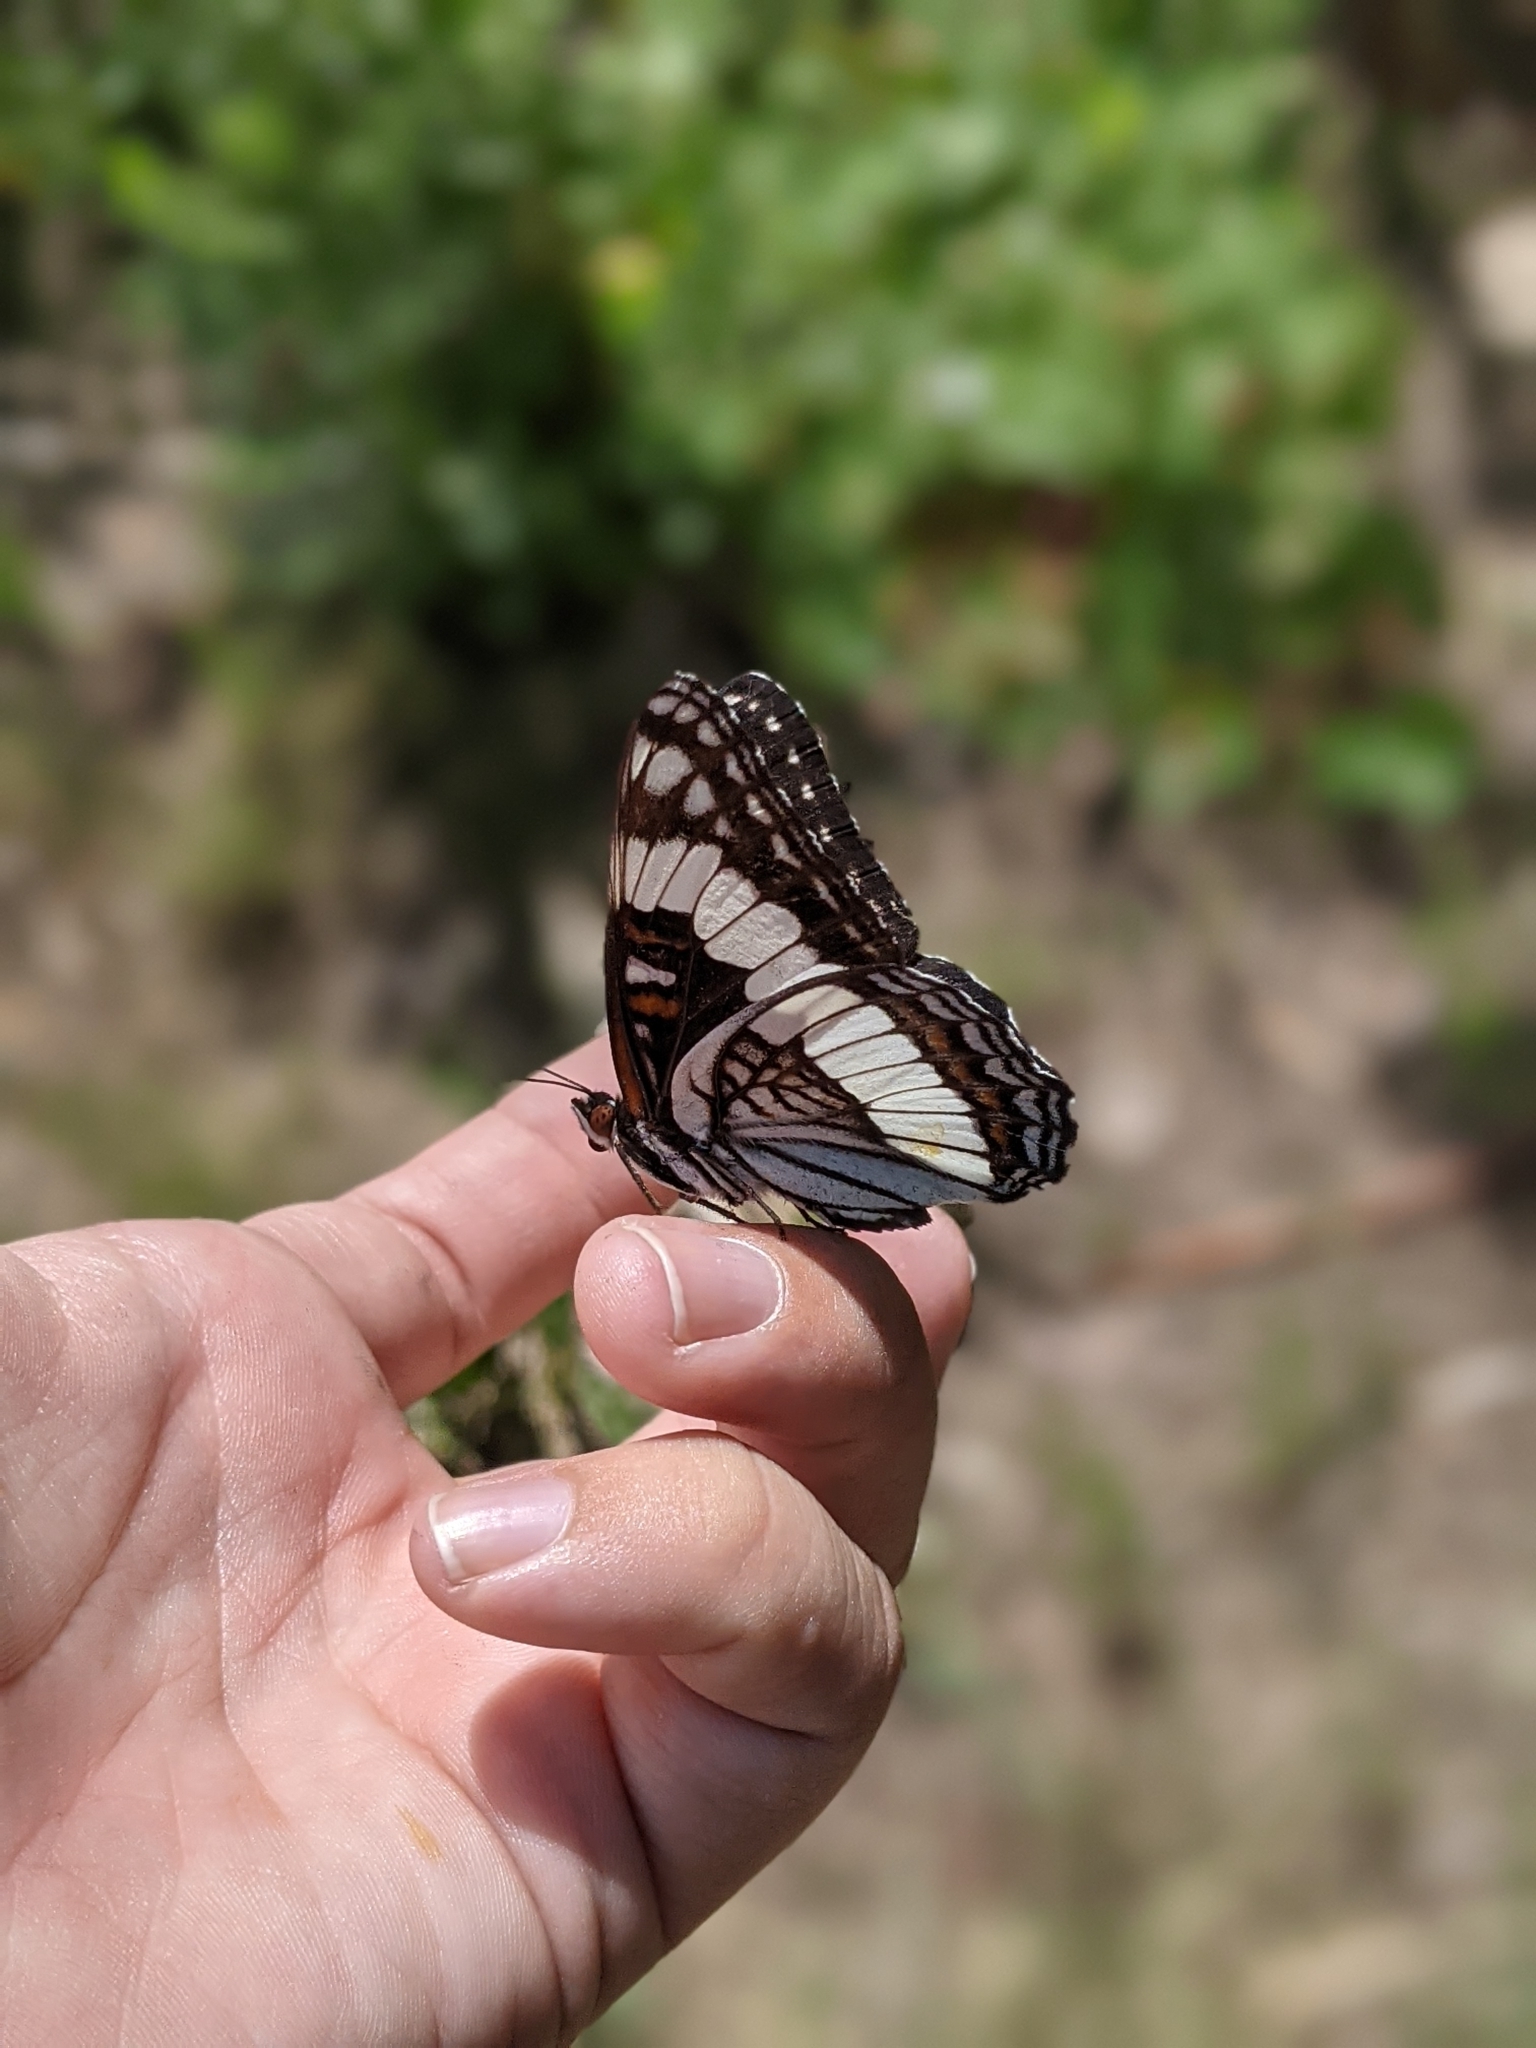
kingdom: Animalia
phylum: Arthropoda
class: Insecta
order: Lepidoptera
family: Nymphalidae
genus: Limenitis
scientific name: Limenitis weidemeyerii
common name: Weidemeyer's admiral
